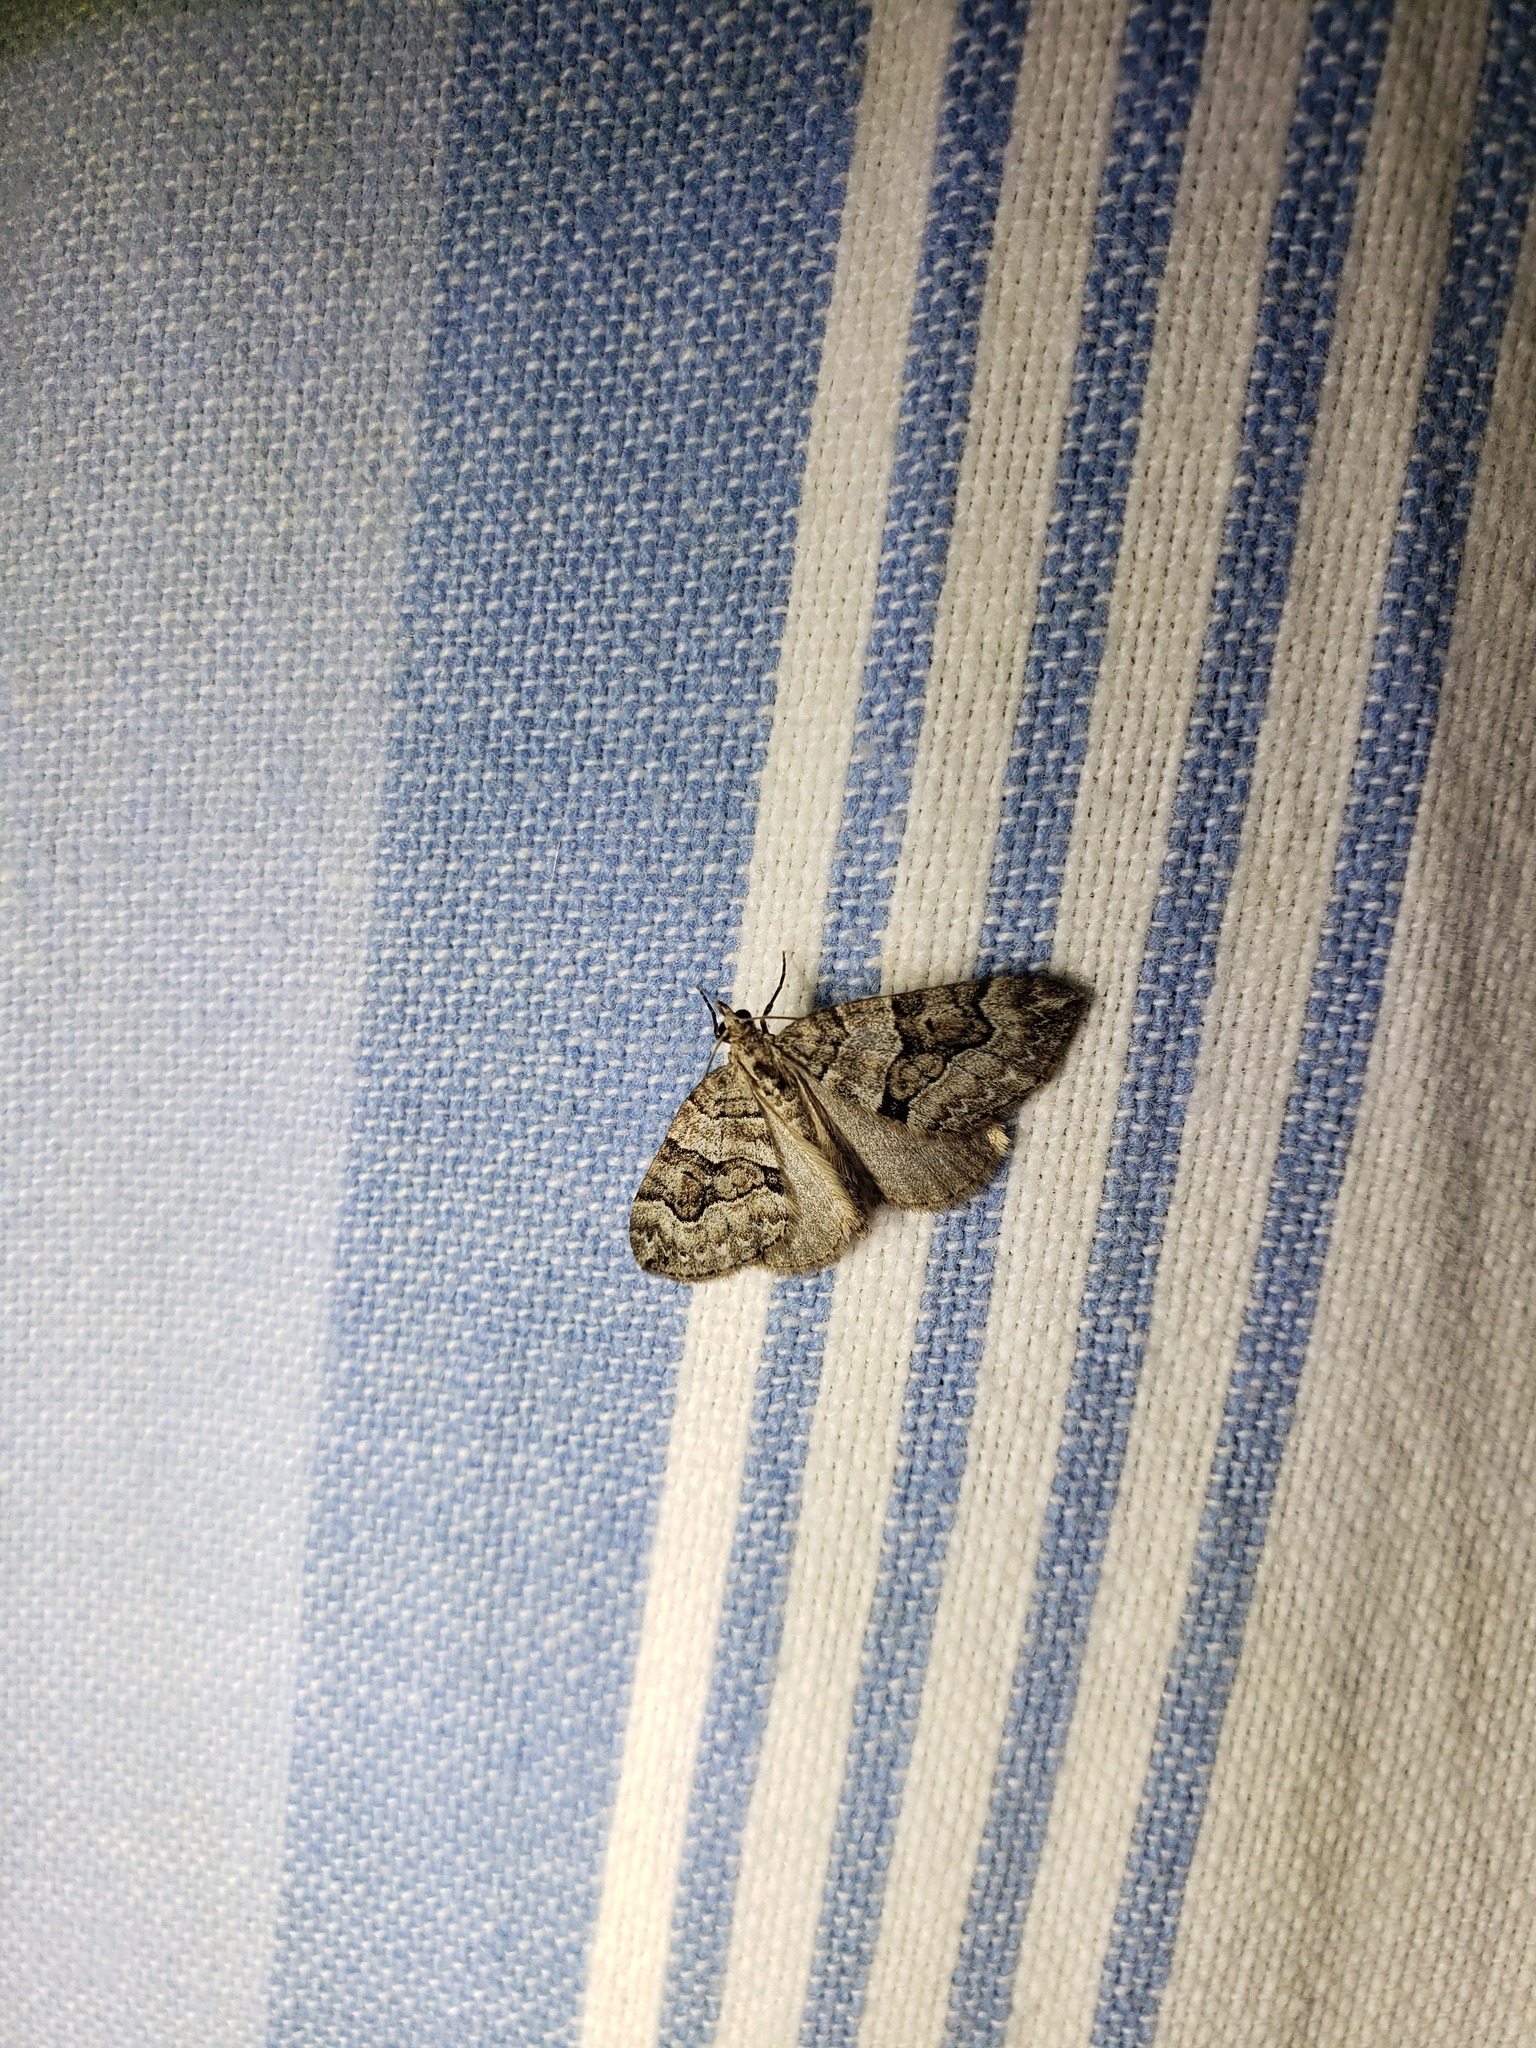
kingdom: Animalia
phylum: Arthropoda
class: Insecta
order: Lepidoptera
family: Geometridae
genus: Thera
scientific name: Thera contractata
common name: Contracted spanworm
